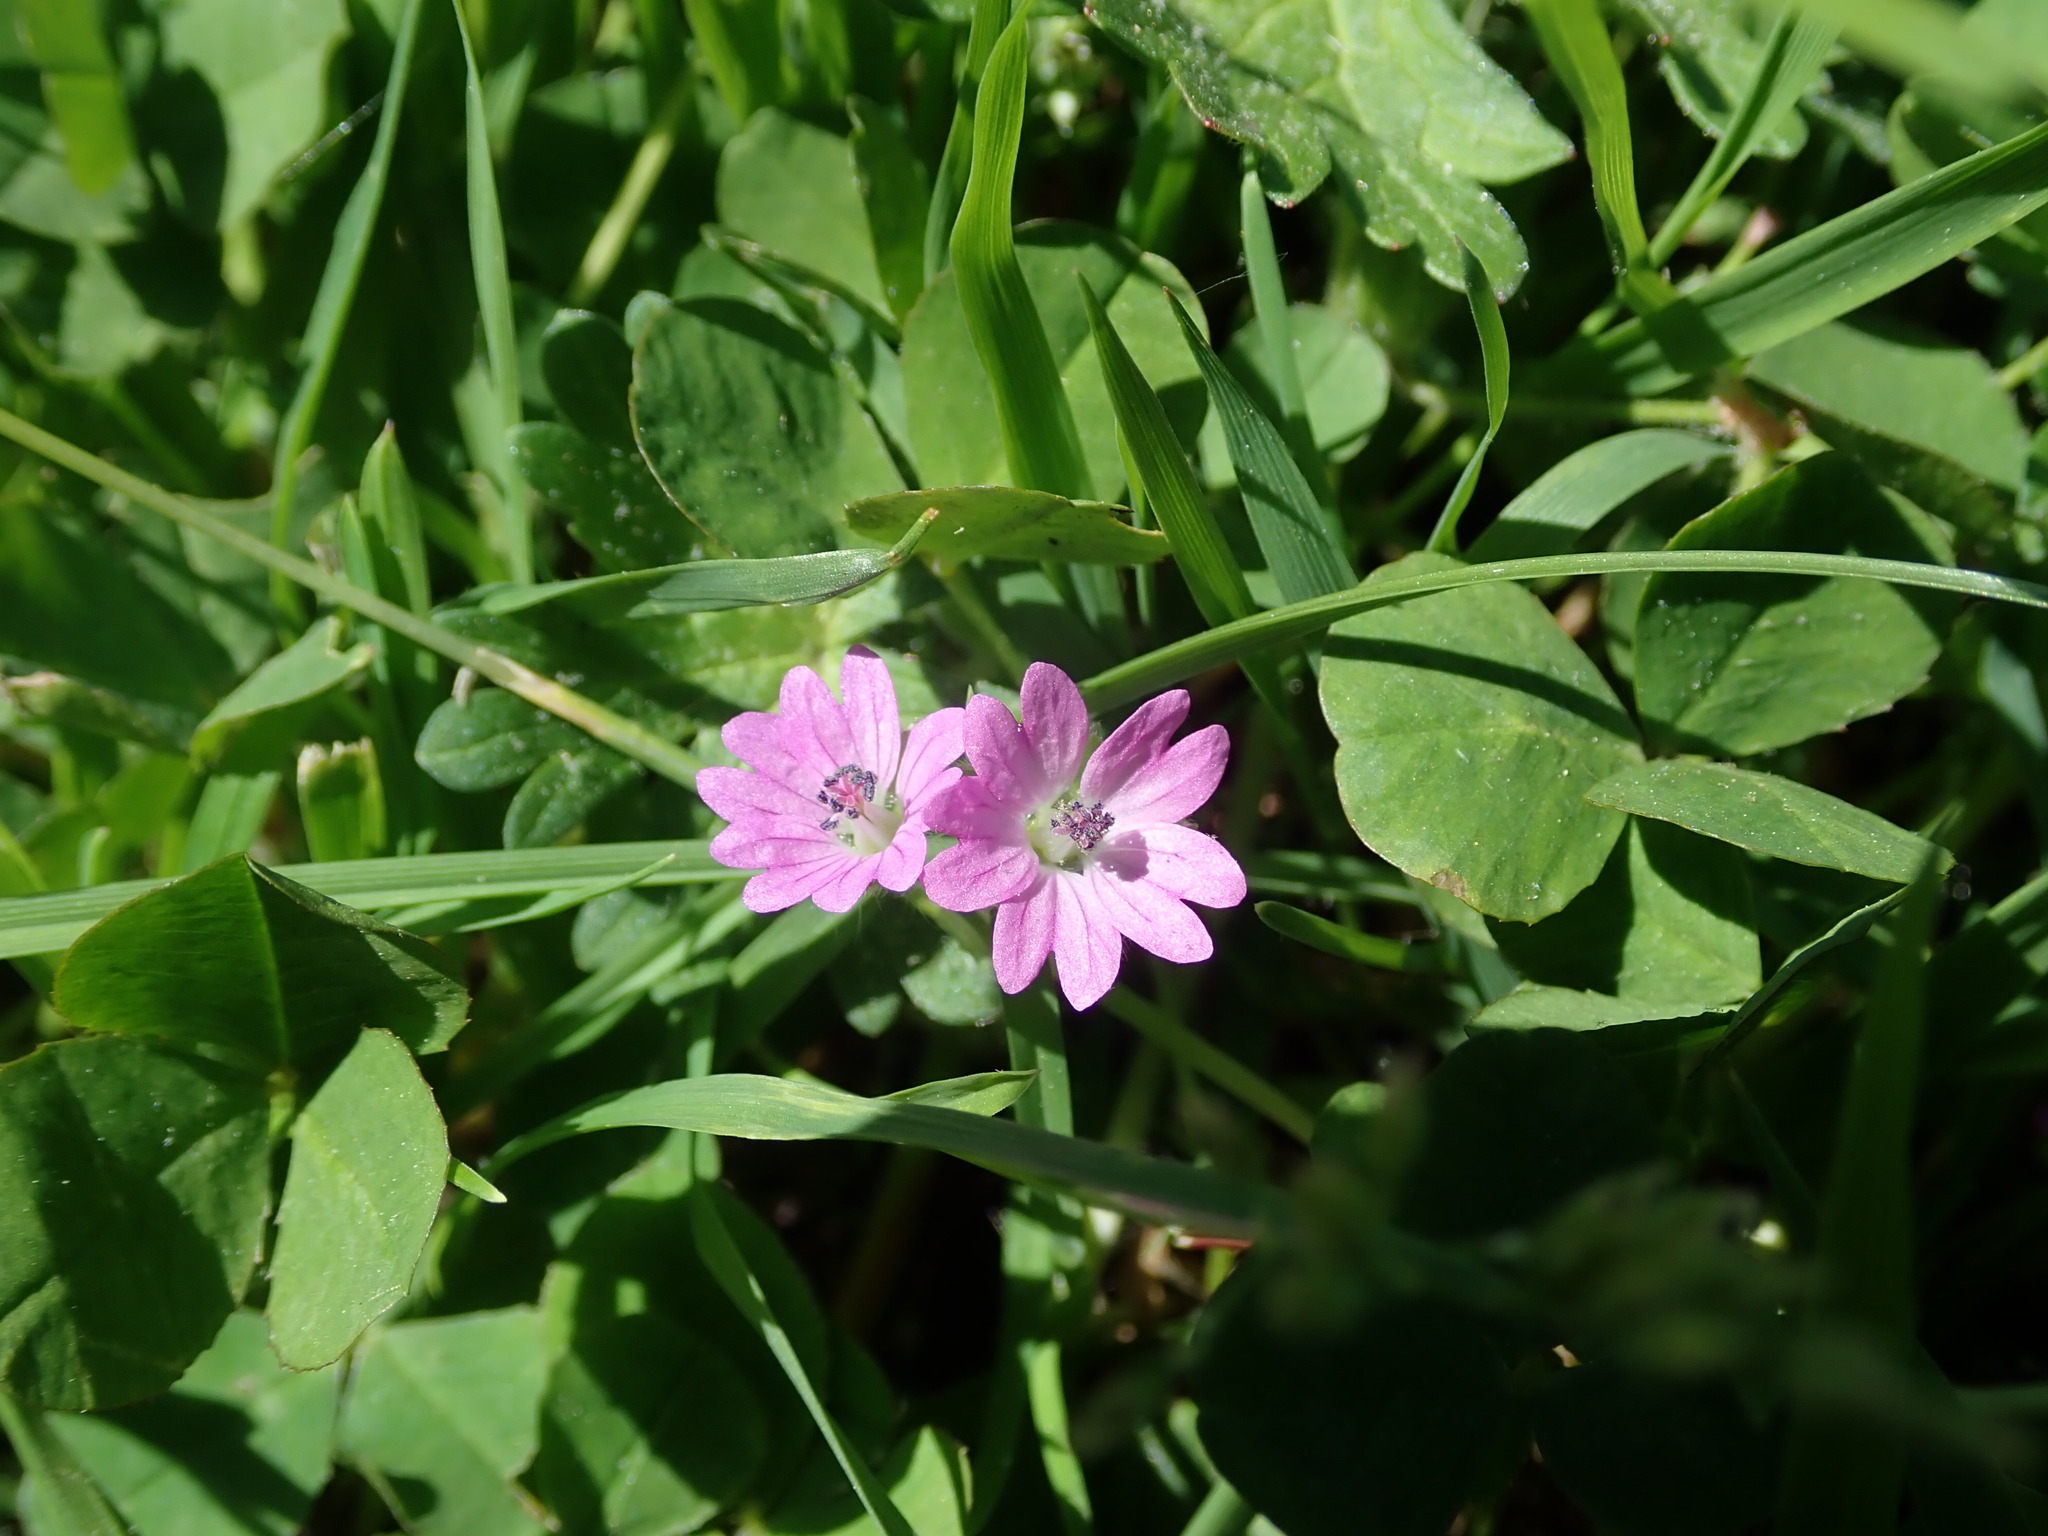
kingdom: Plantae
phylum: Tracheophyta
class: Magnoliopsida
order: Geraniales
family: Geraniaceae
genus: Geranium
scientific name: Geranium molle
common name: Dove's-foot crane's-bill
